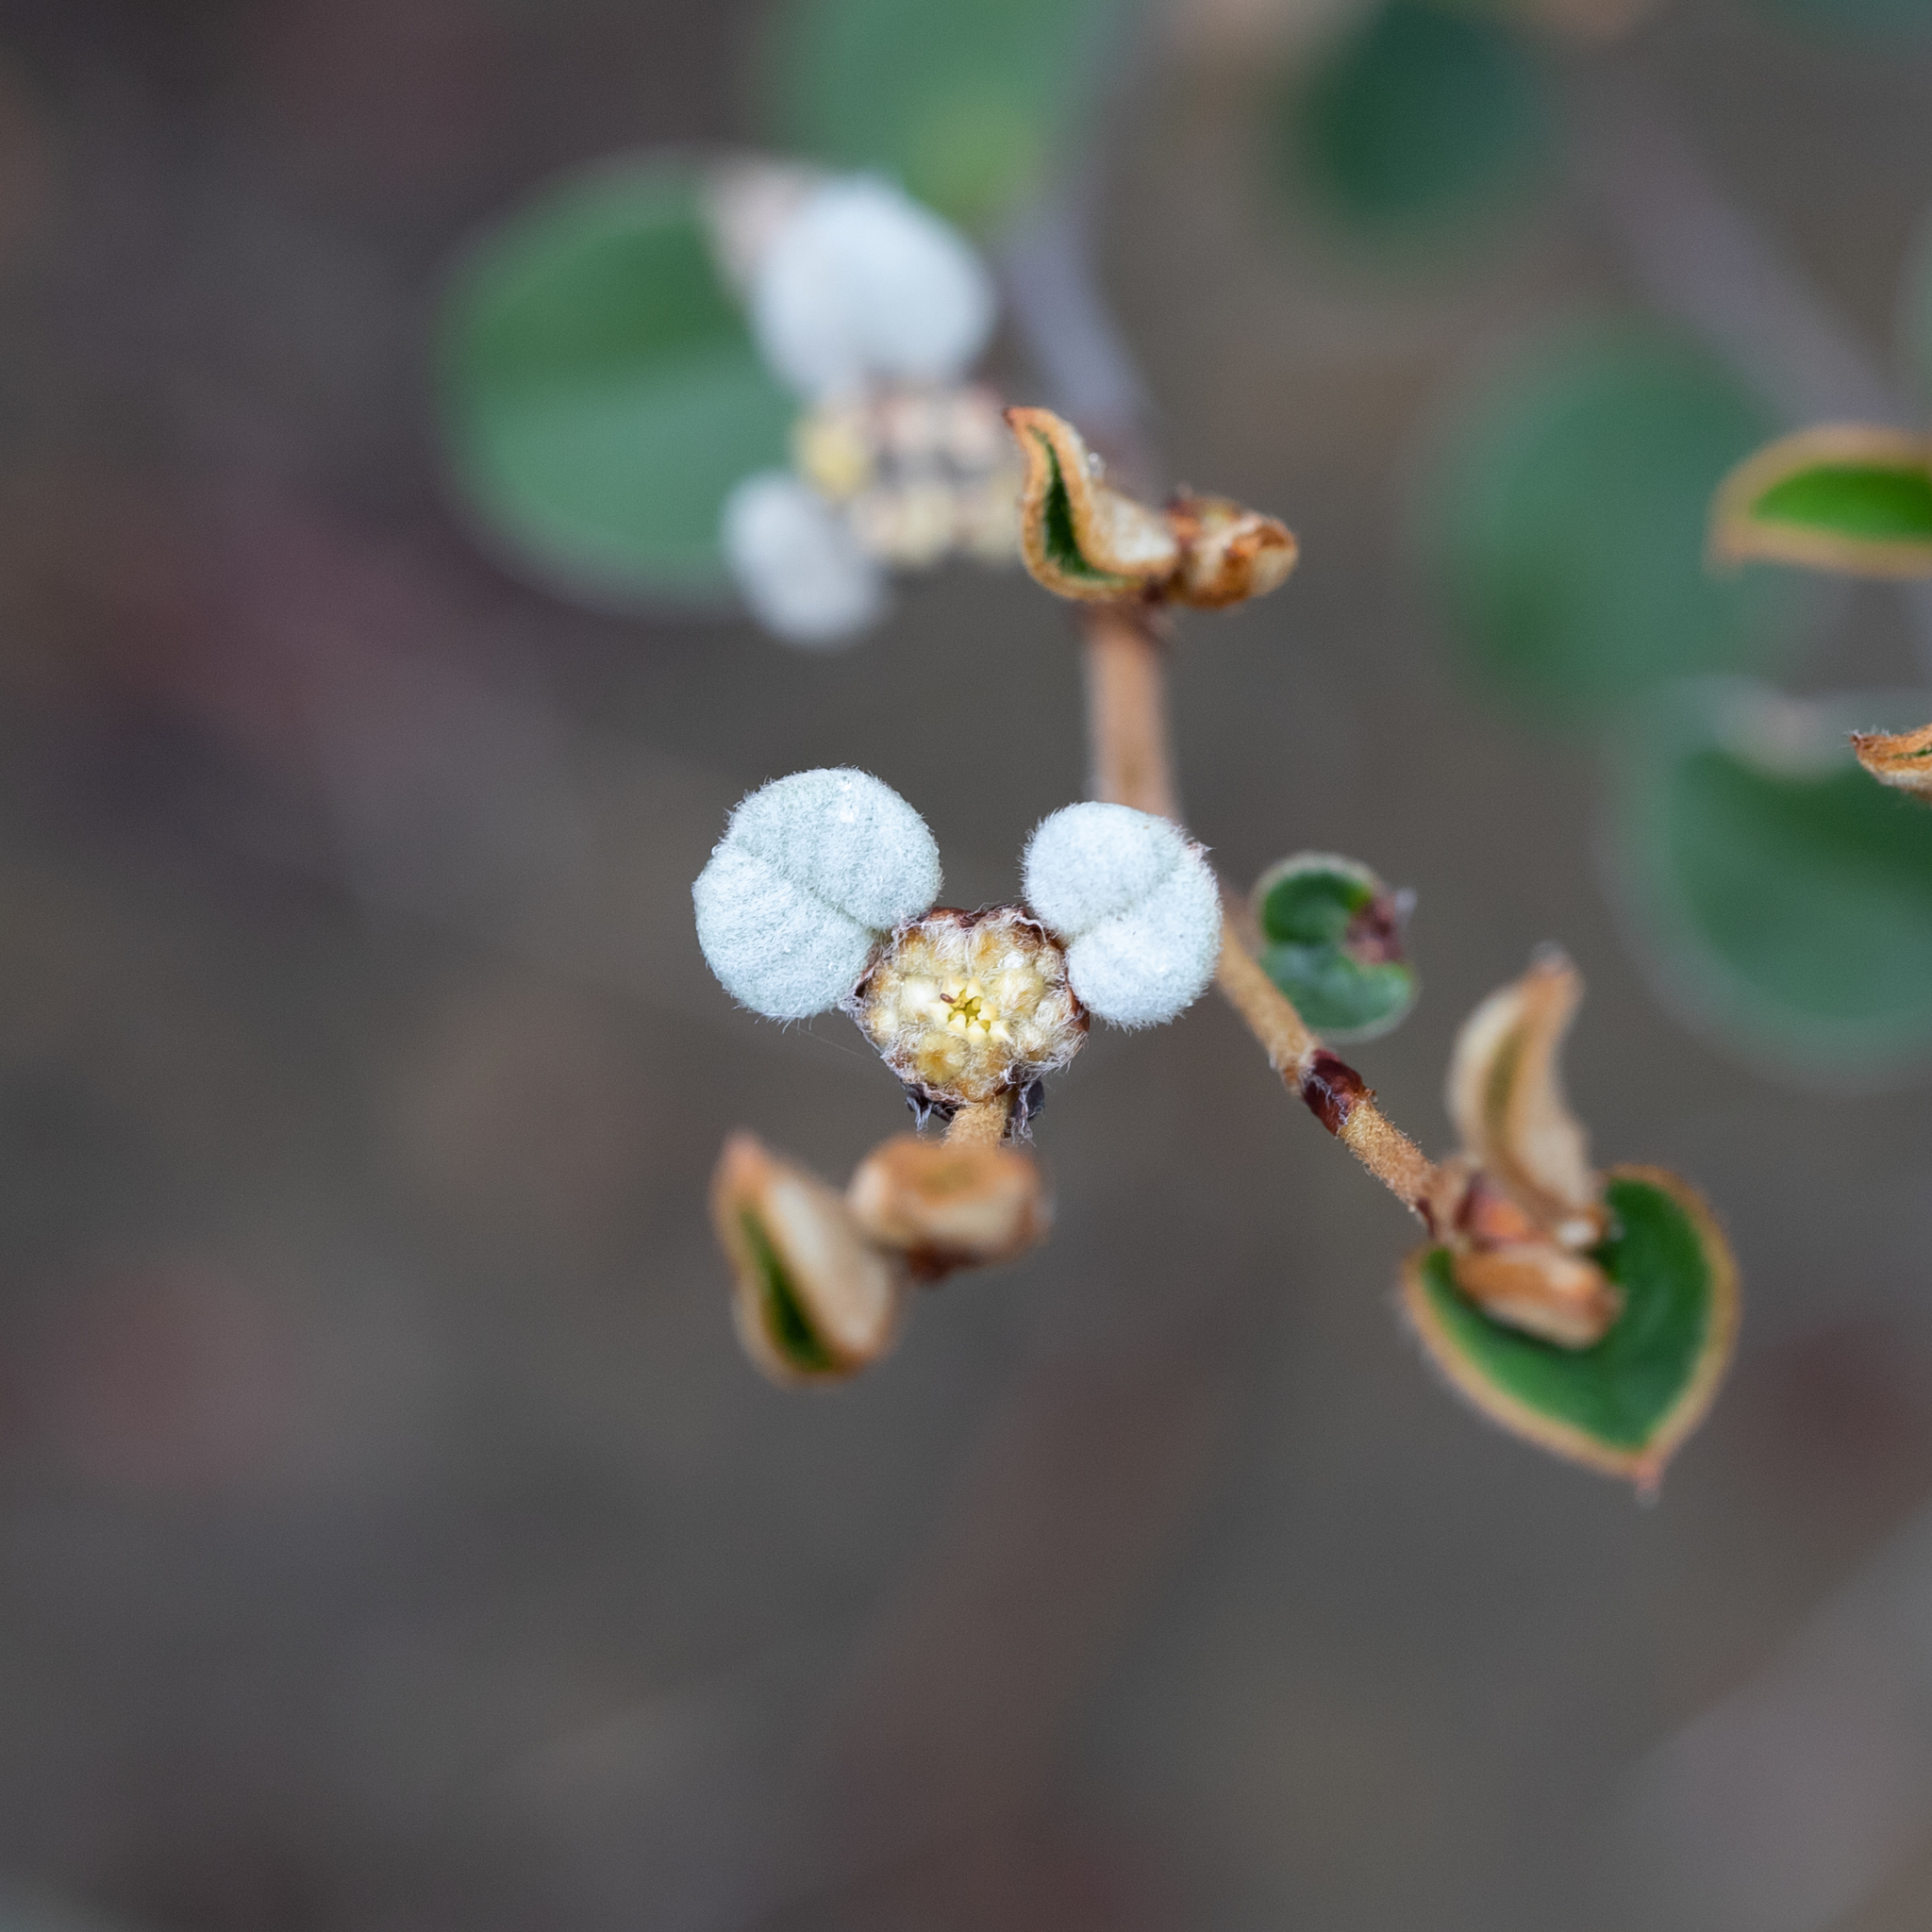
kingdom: Plantae
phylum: Tracheophyta
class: Magnoliopsida
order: Rosales
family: Rhamnaceae
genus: Spyridium
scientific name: Spyridium thymifolium
